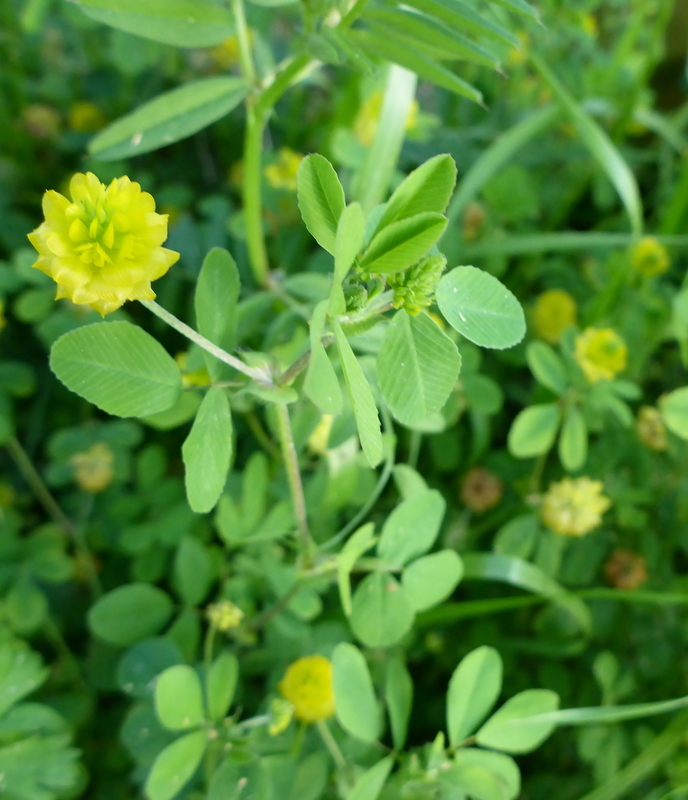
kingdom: Plantae
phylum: Tracheophyta
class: Magnoliopsida
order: Fabales
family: Fabaceae
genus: Trifolium
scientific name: Trifolium campestre
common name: Field clover
